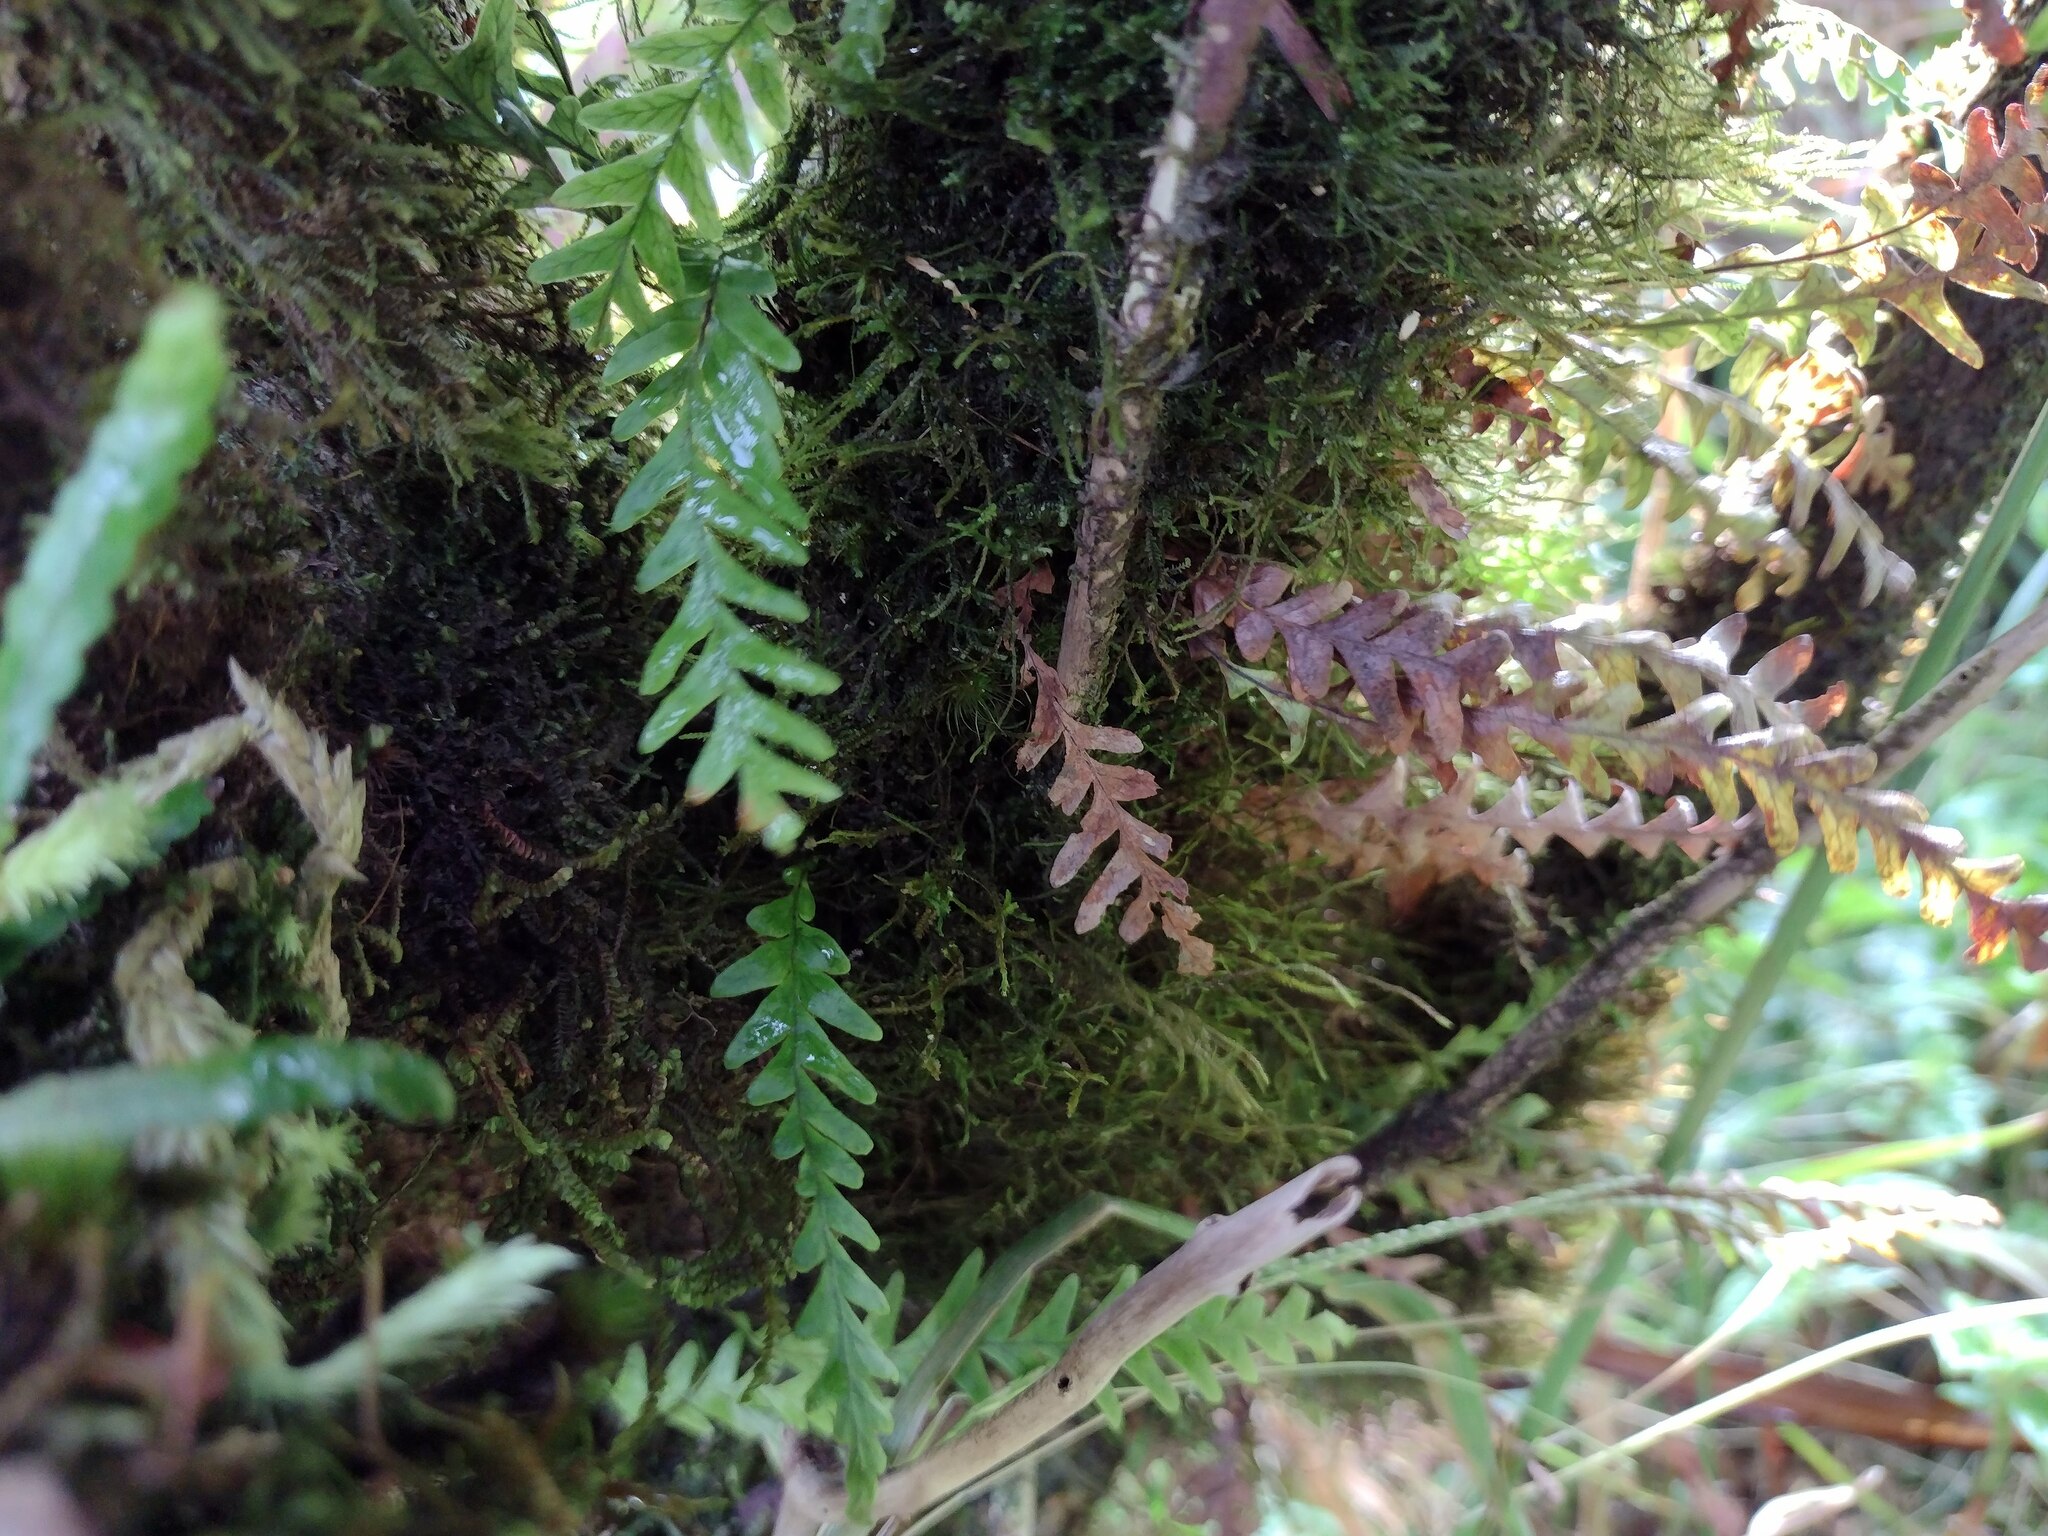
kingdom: Plantae
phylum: Tracheophyta
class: Polypodiopsida
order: Polypodiales
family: Polypodiaceae
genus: Adenophorus
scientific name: Adenophorus pinnatifidus
